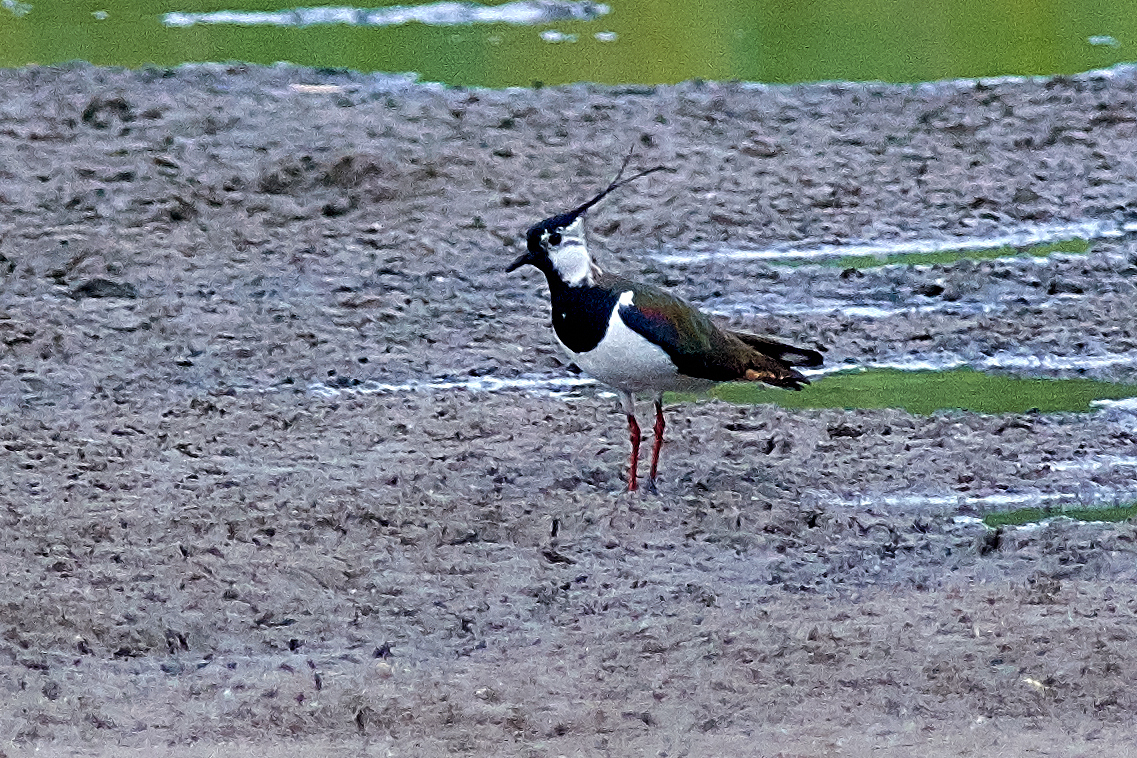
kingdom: Animalia
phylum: Chordata
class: Aves
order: Charadriiformes
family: Charadriidae
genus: Vanellus
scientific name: Vanellus vanellus
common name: Northern lapwing
